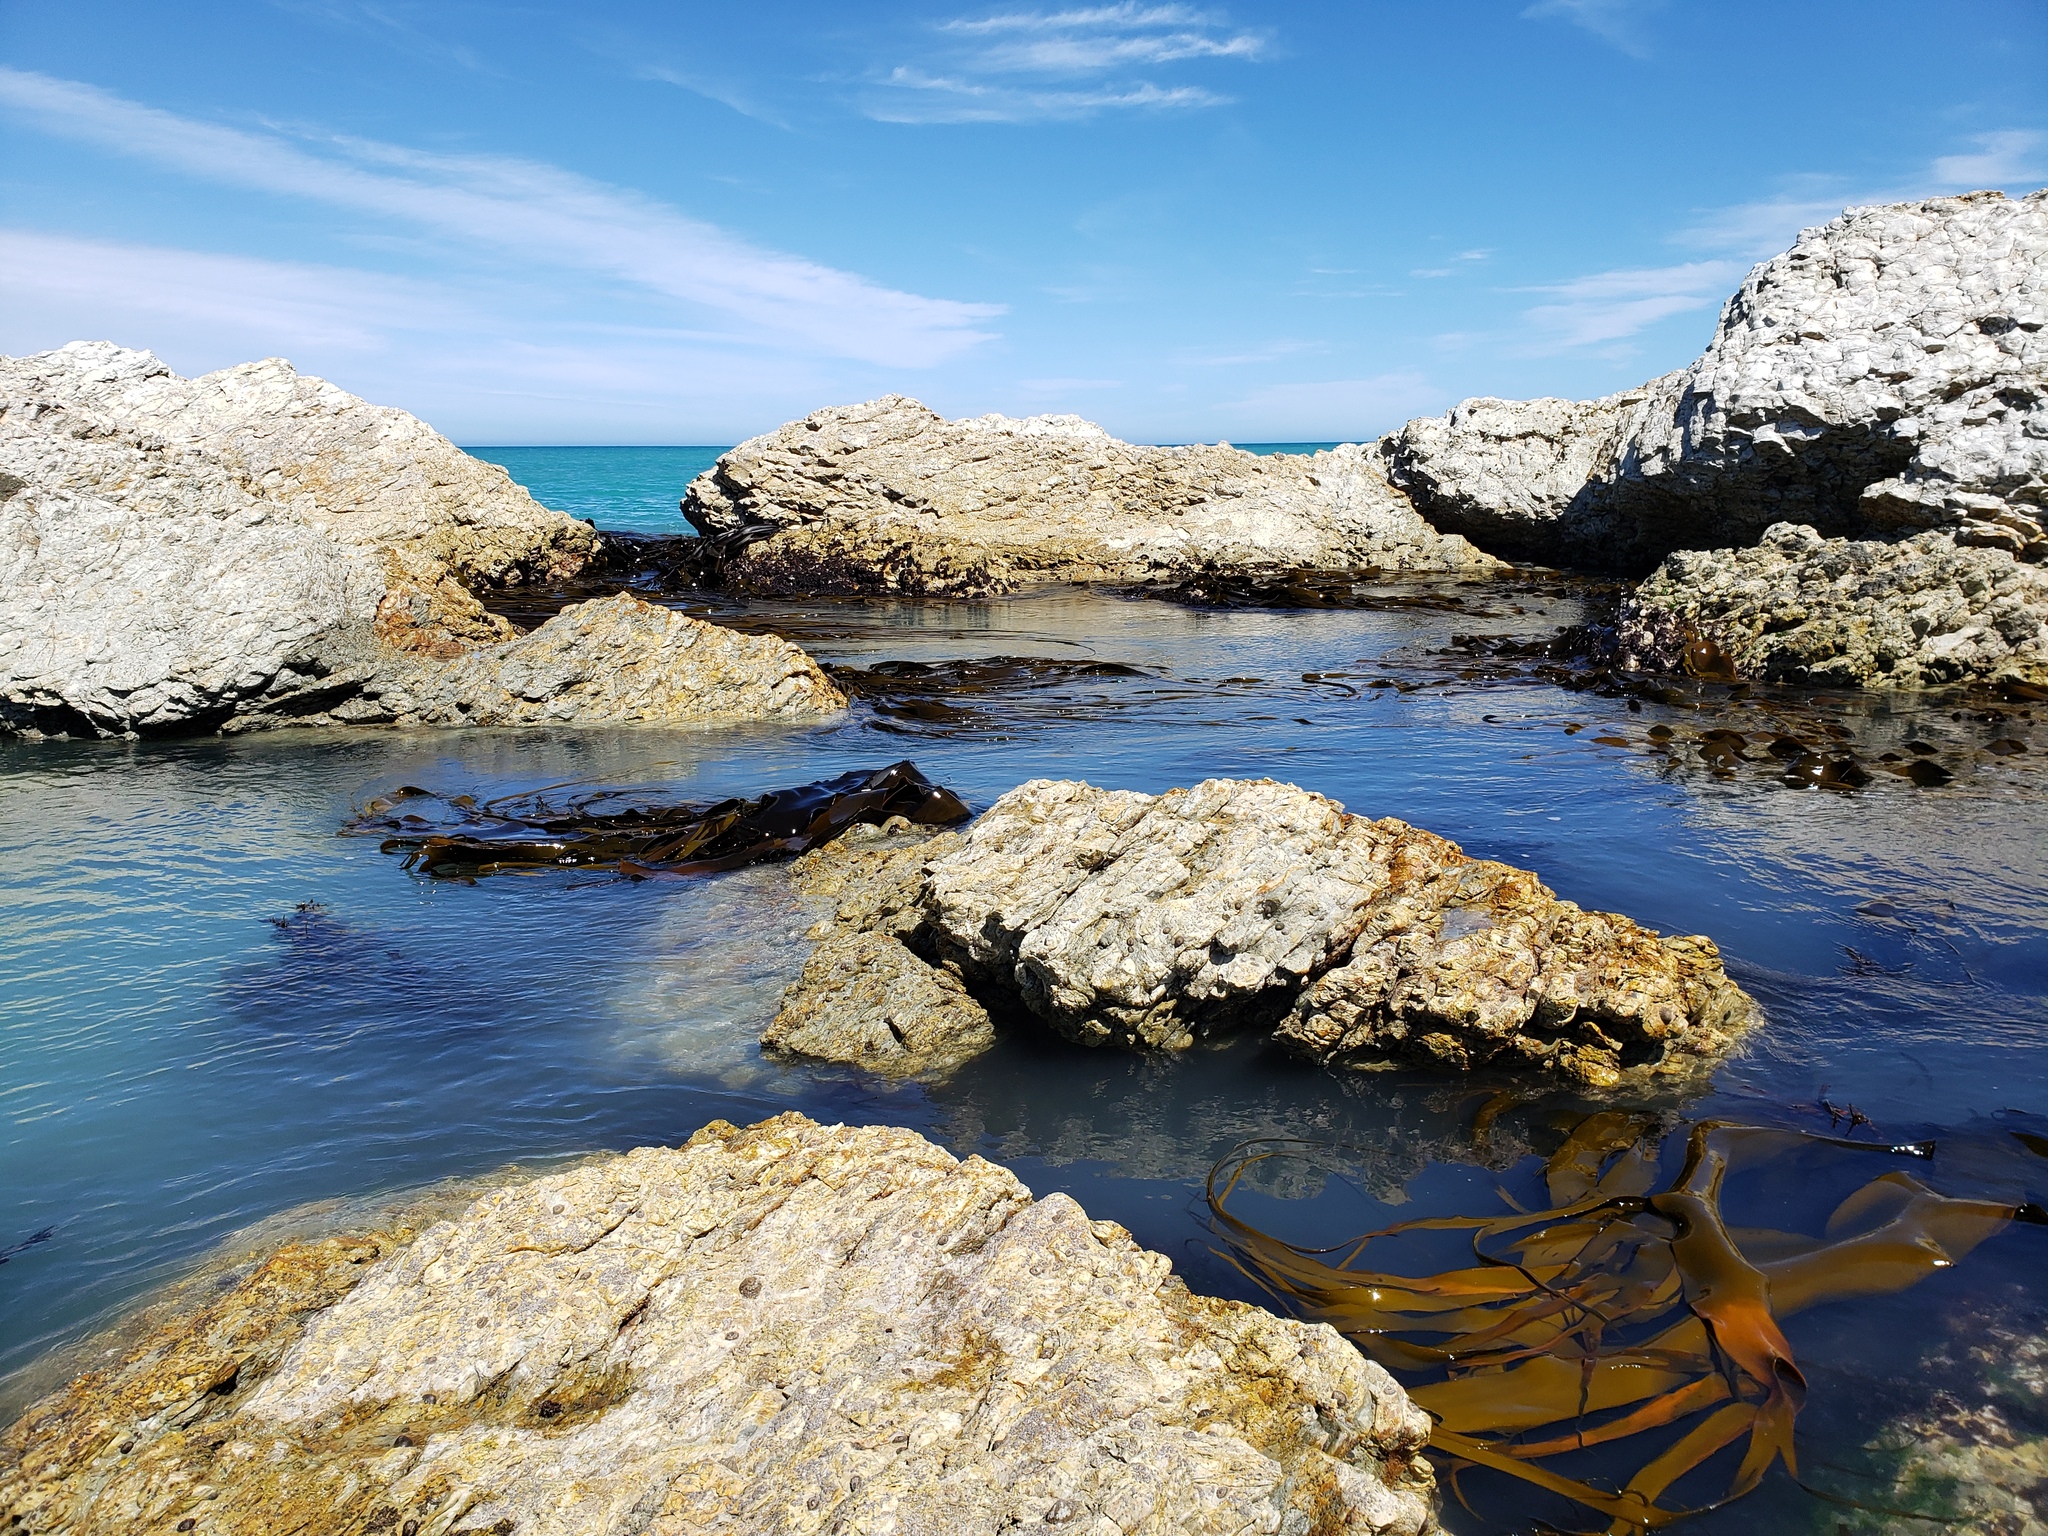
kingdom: Chromista
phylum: Ochrophyta
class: Phaeophyceae
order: Fucales
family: Durvillaeaceae
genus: Durvillaea
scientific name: Durvillaea antarctica
